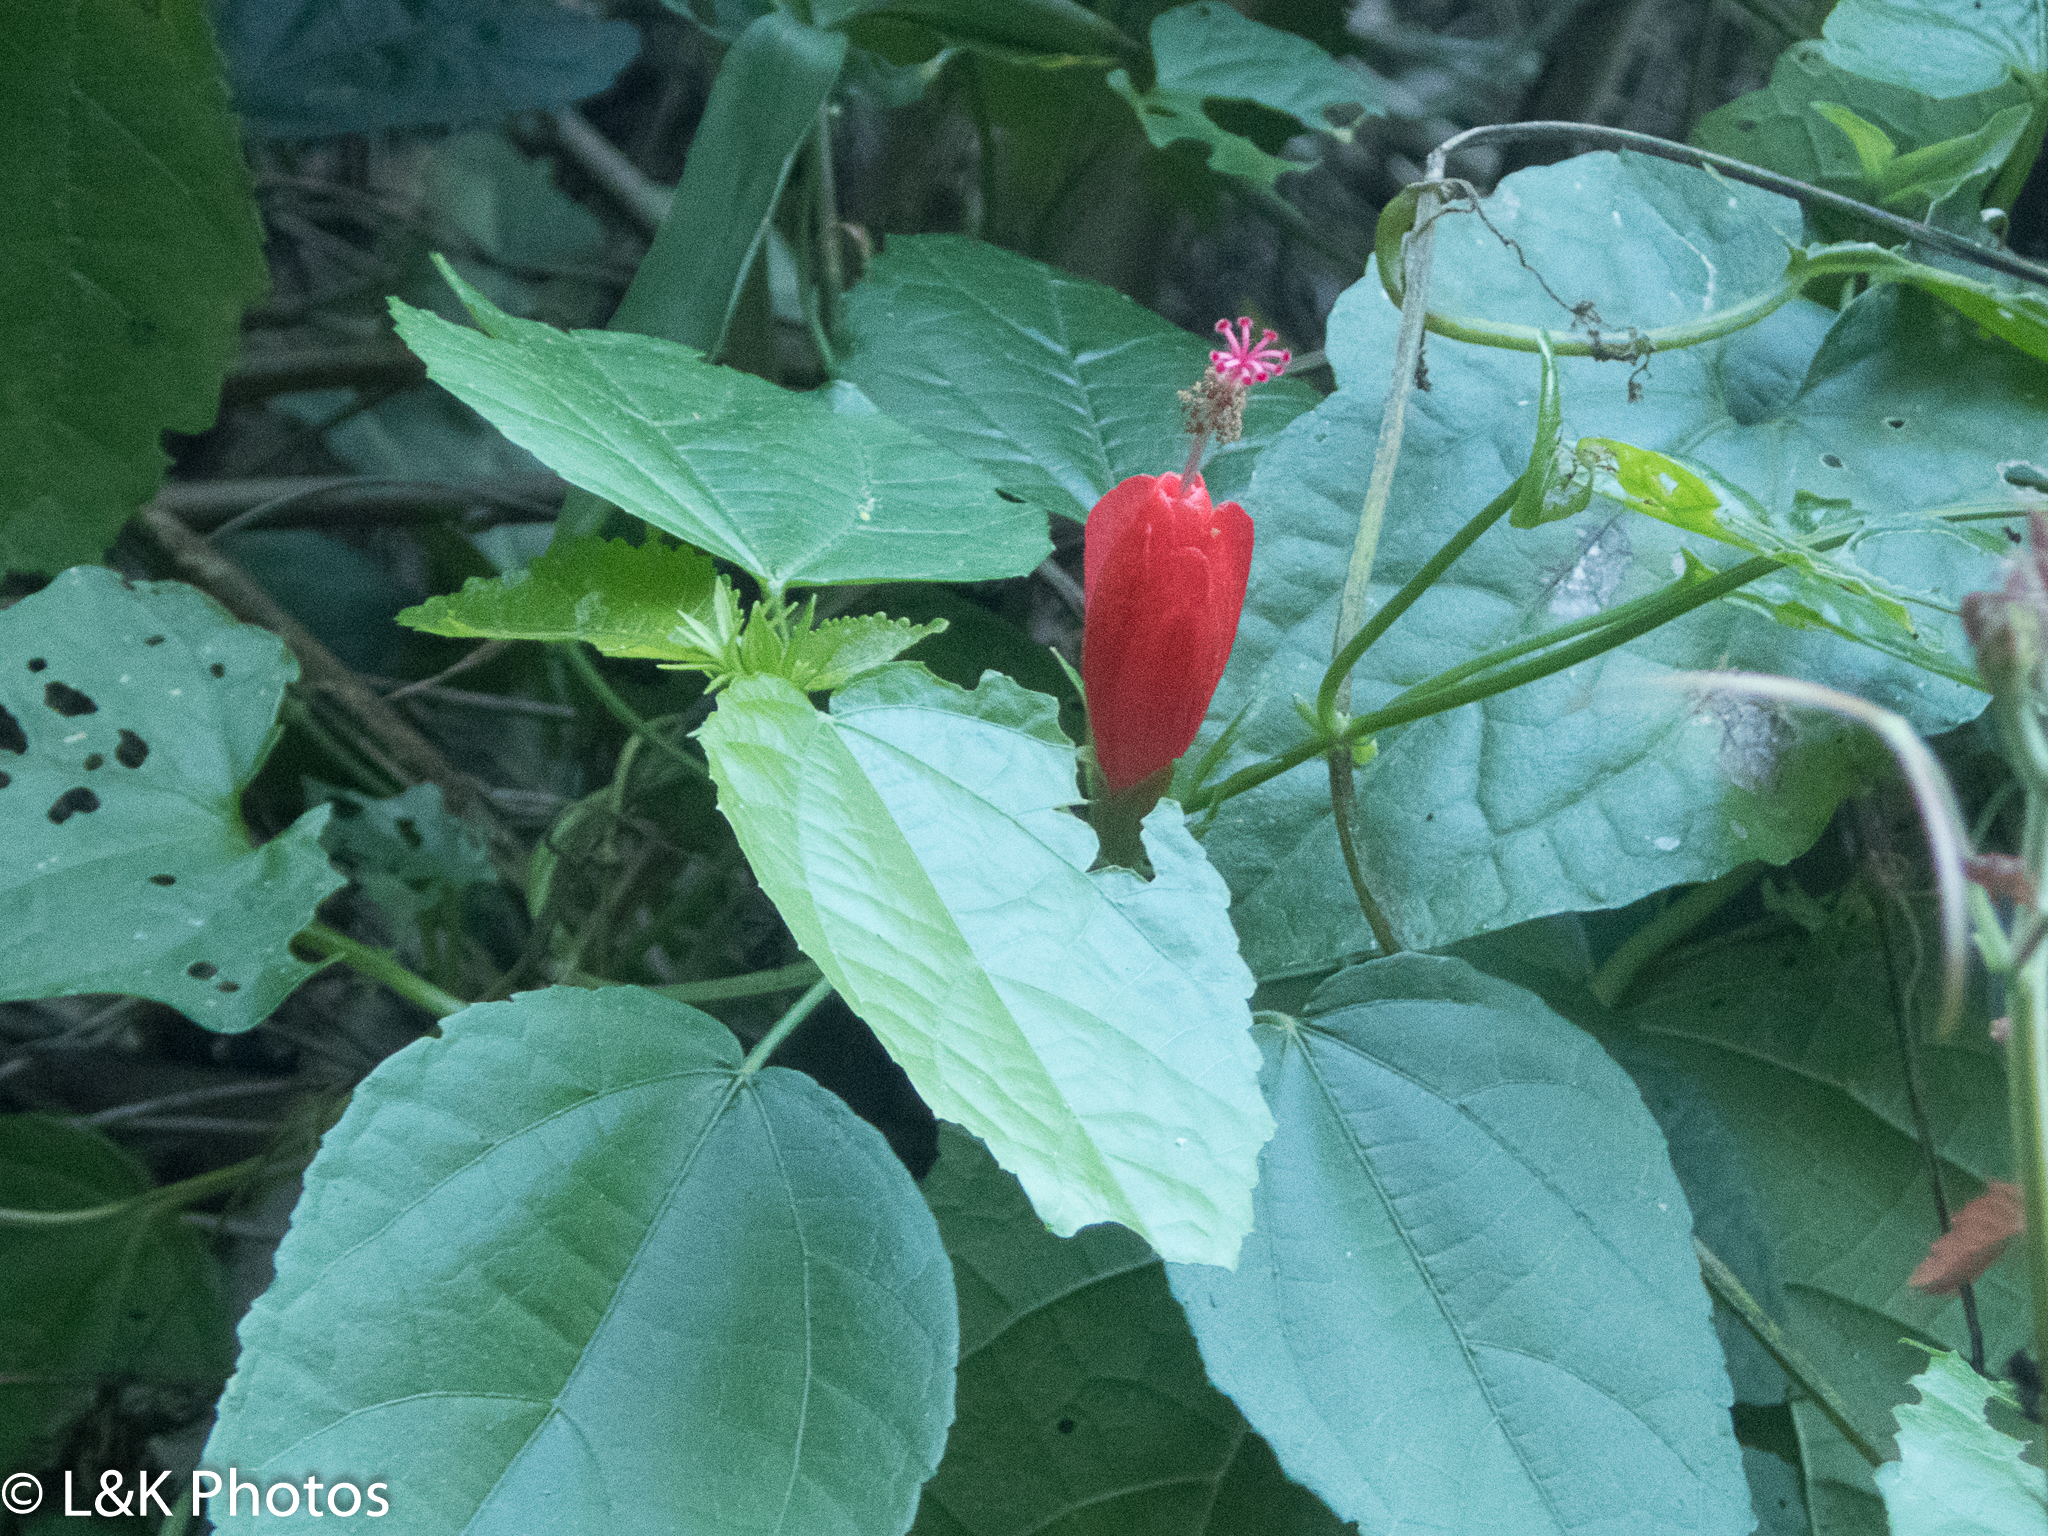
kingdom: Plantae
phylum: Tracheophyta
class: Magnoliopsida
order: Malvales
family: Malvaceae
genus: Malvaviscus
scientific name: Malvaviscus arboreus
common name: Wax mallow
